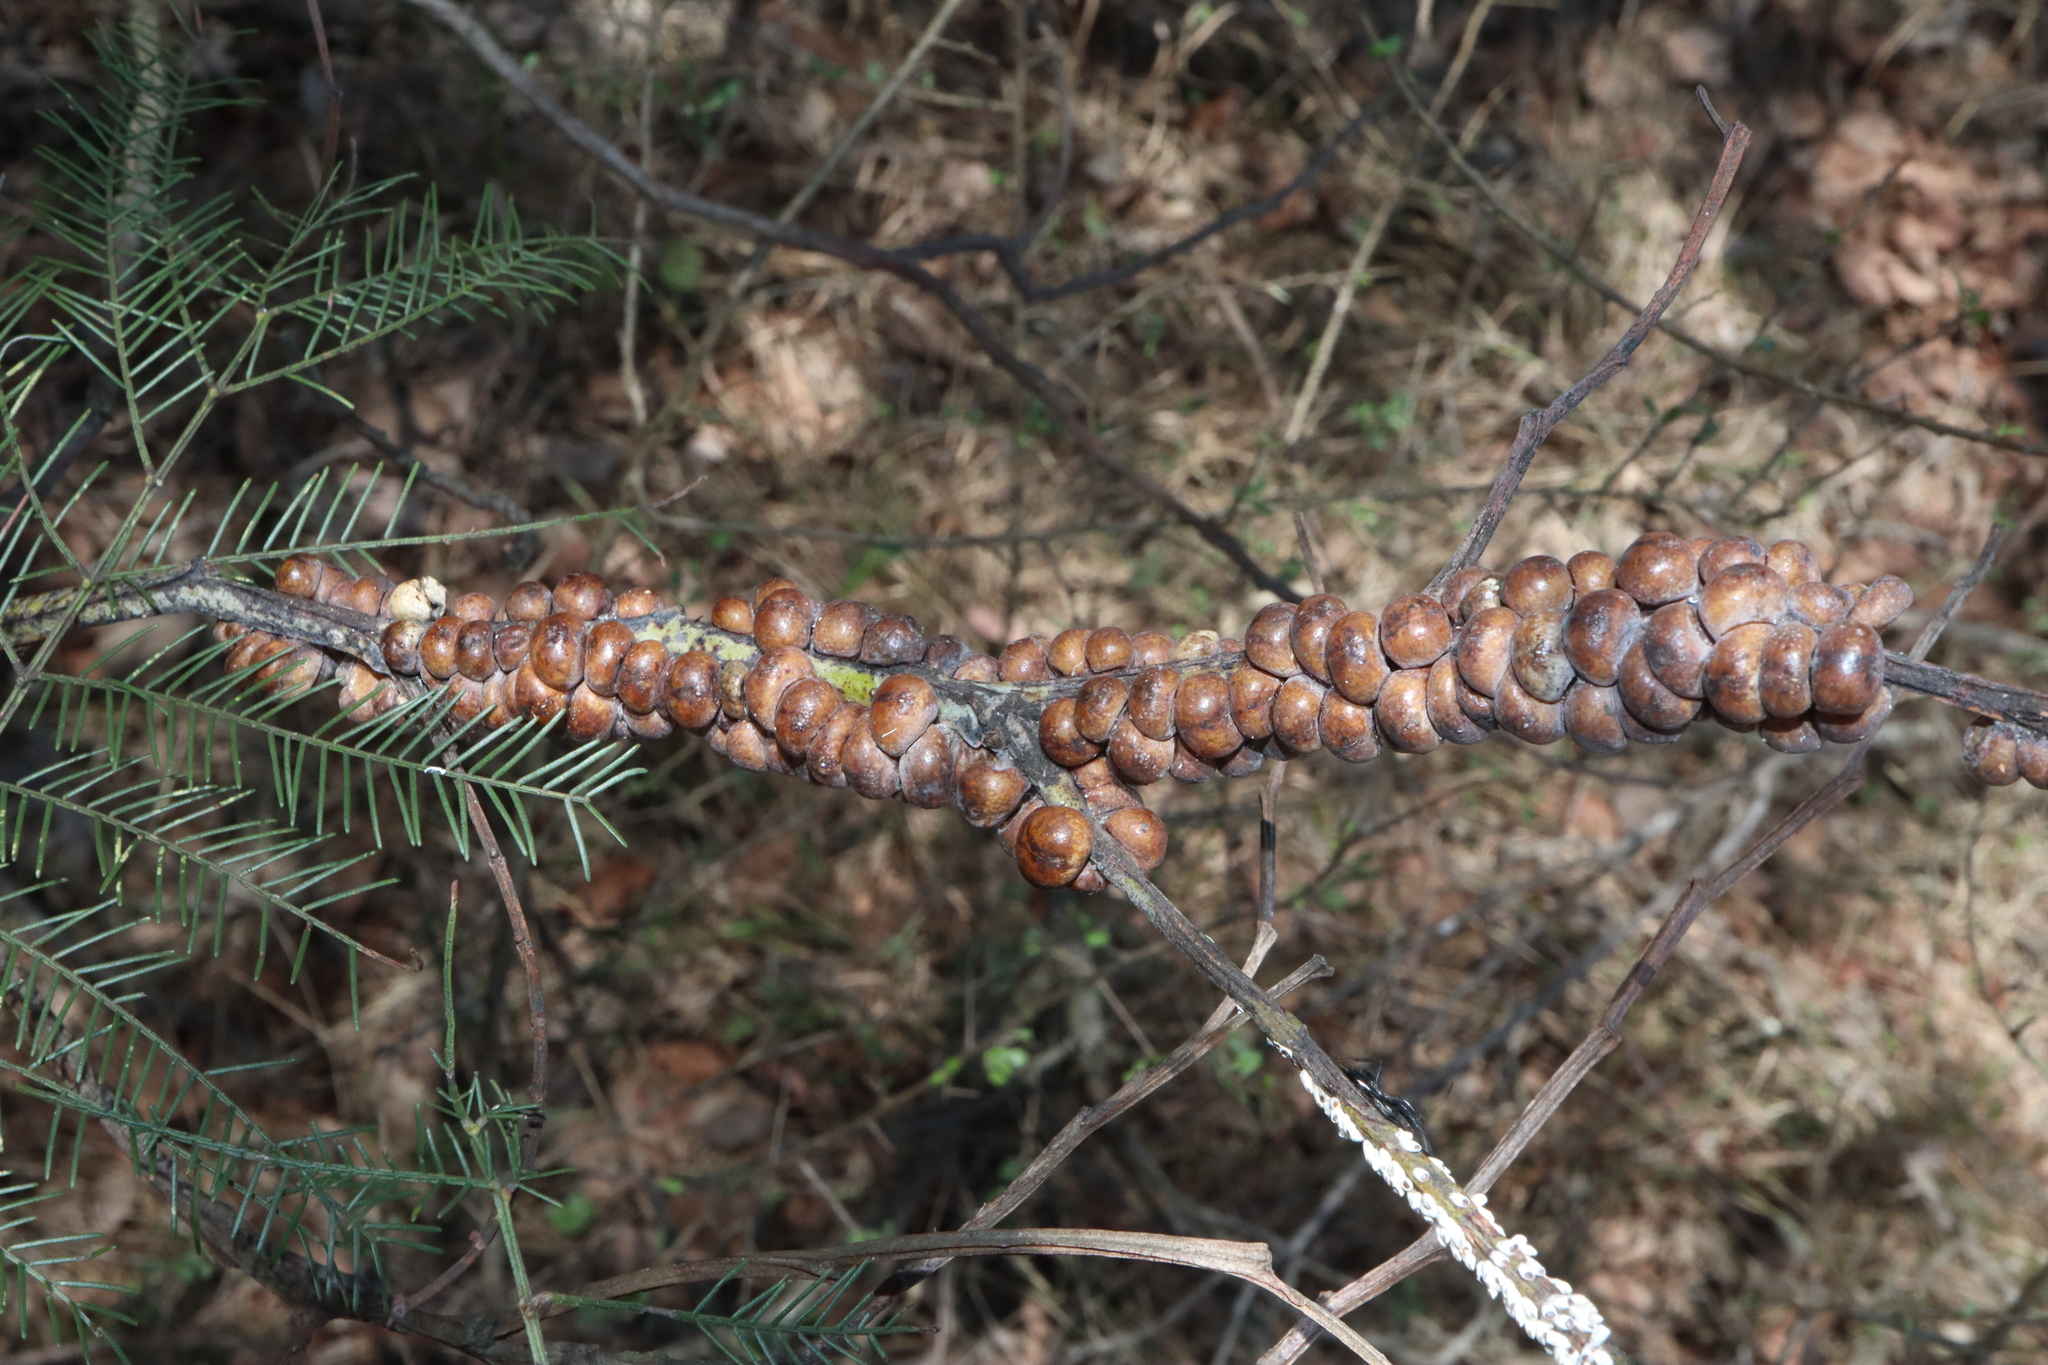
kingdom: Animalia
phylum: Arthropoda
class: Insecta
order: Hemiptera
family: Coccidae
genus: Cryptes
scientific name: Cryptes baccatus
